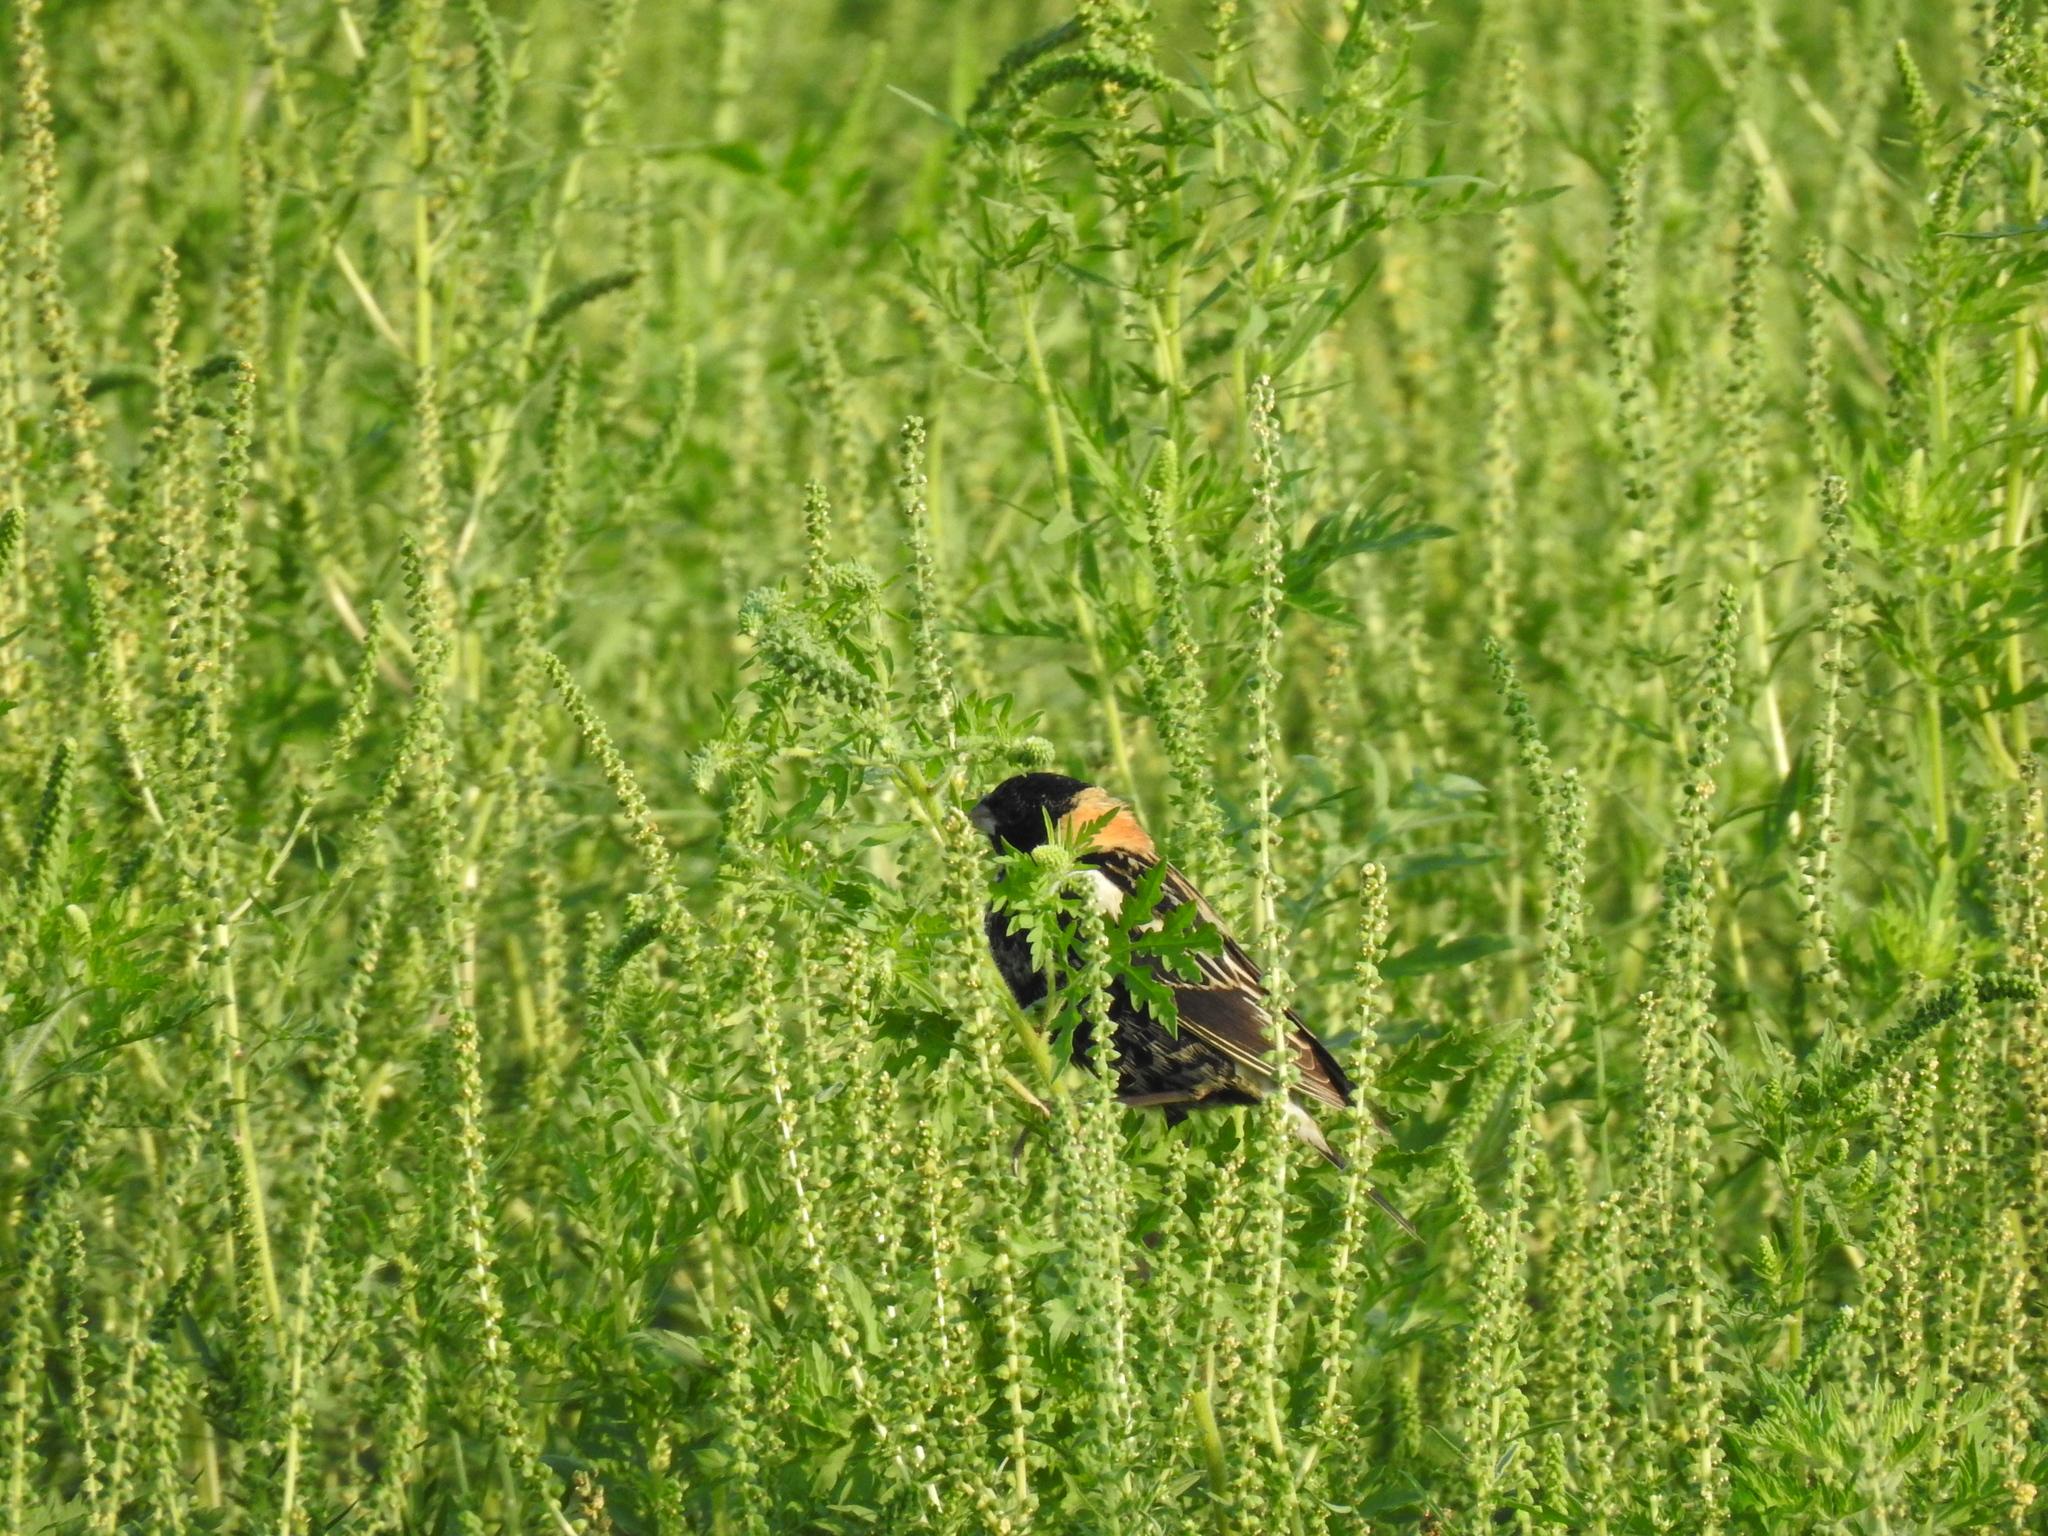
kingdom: Animalia
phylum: Chordata
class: Aves
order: Passeriformes
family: Icteridae
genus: Dolichonyx
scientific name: Dolichonyx oryzivorus
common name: Bobolink
